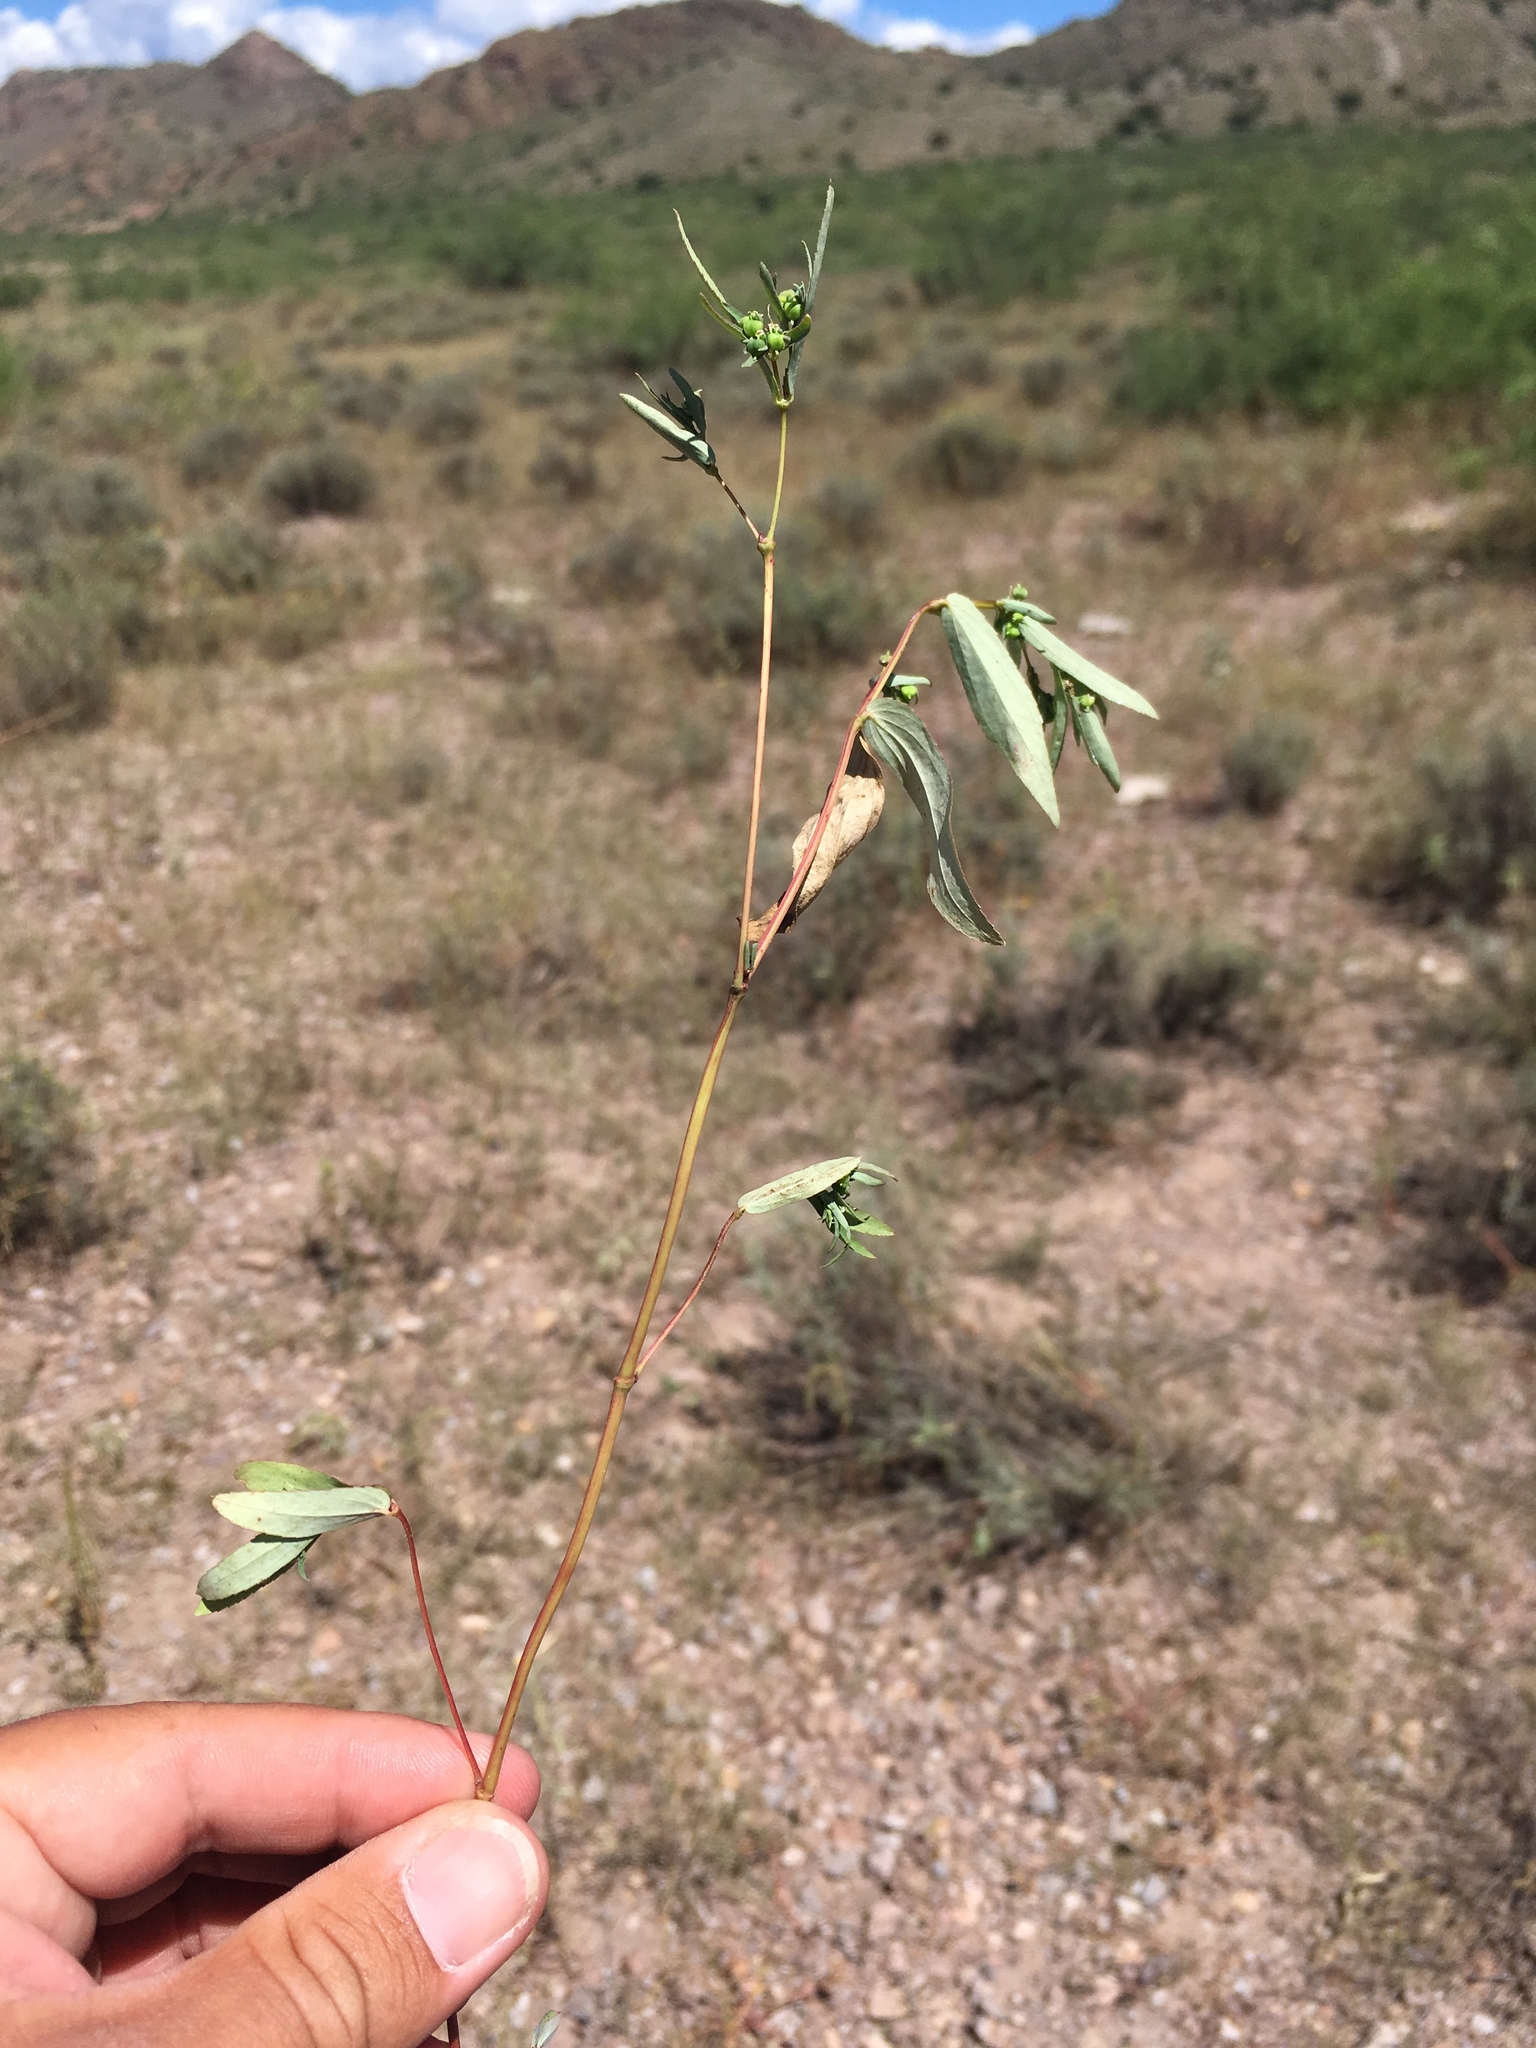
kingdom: Plantae
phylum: Tracheophyta
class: Magnoliopsida
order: Malpighiales
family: Euphorbiaceae
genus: Euphorbia
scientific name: Euphorbia hyssopifolia
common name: Hyssopleaf sandmat
